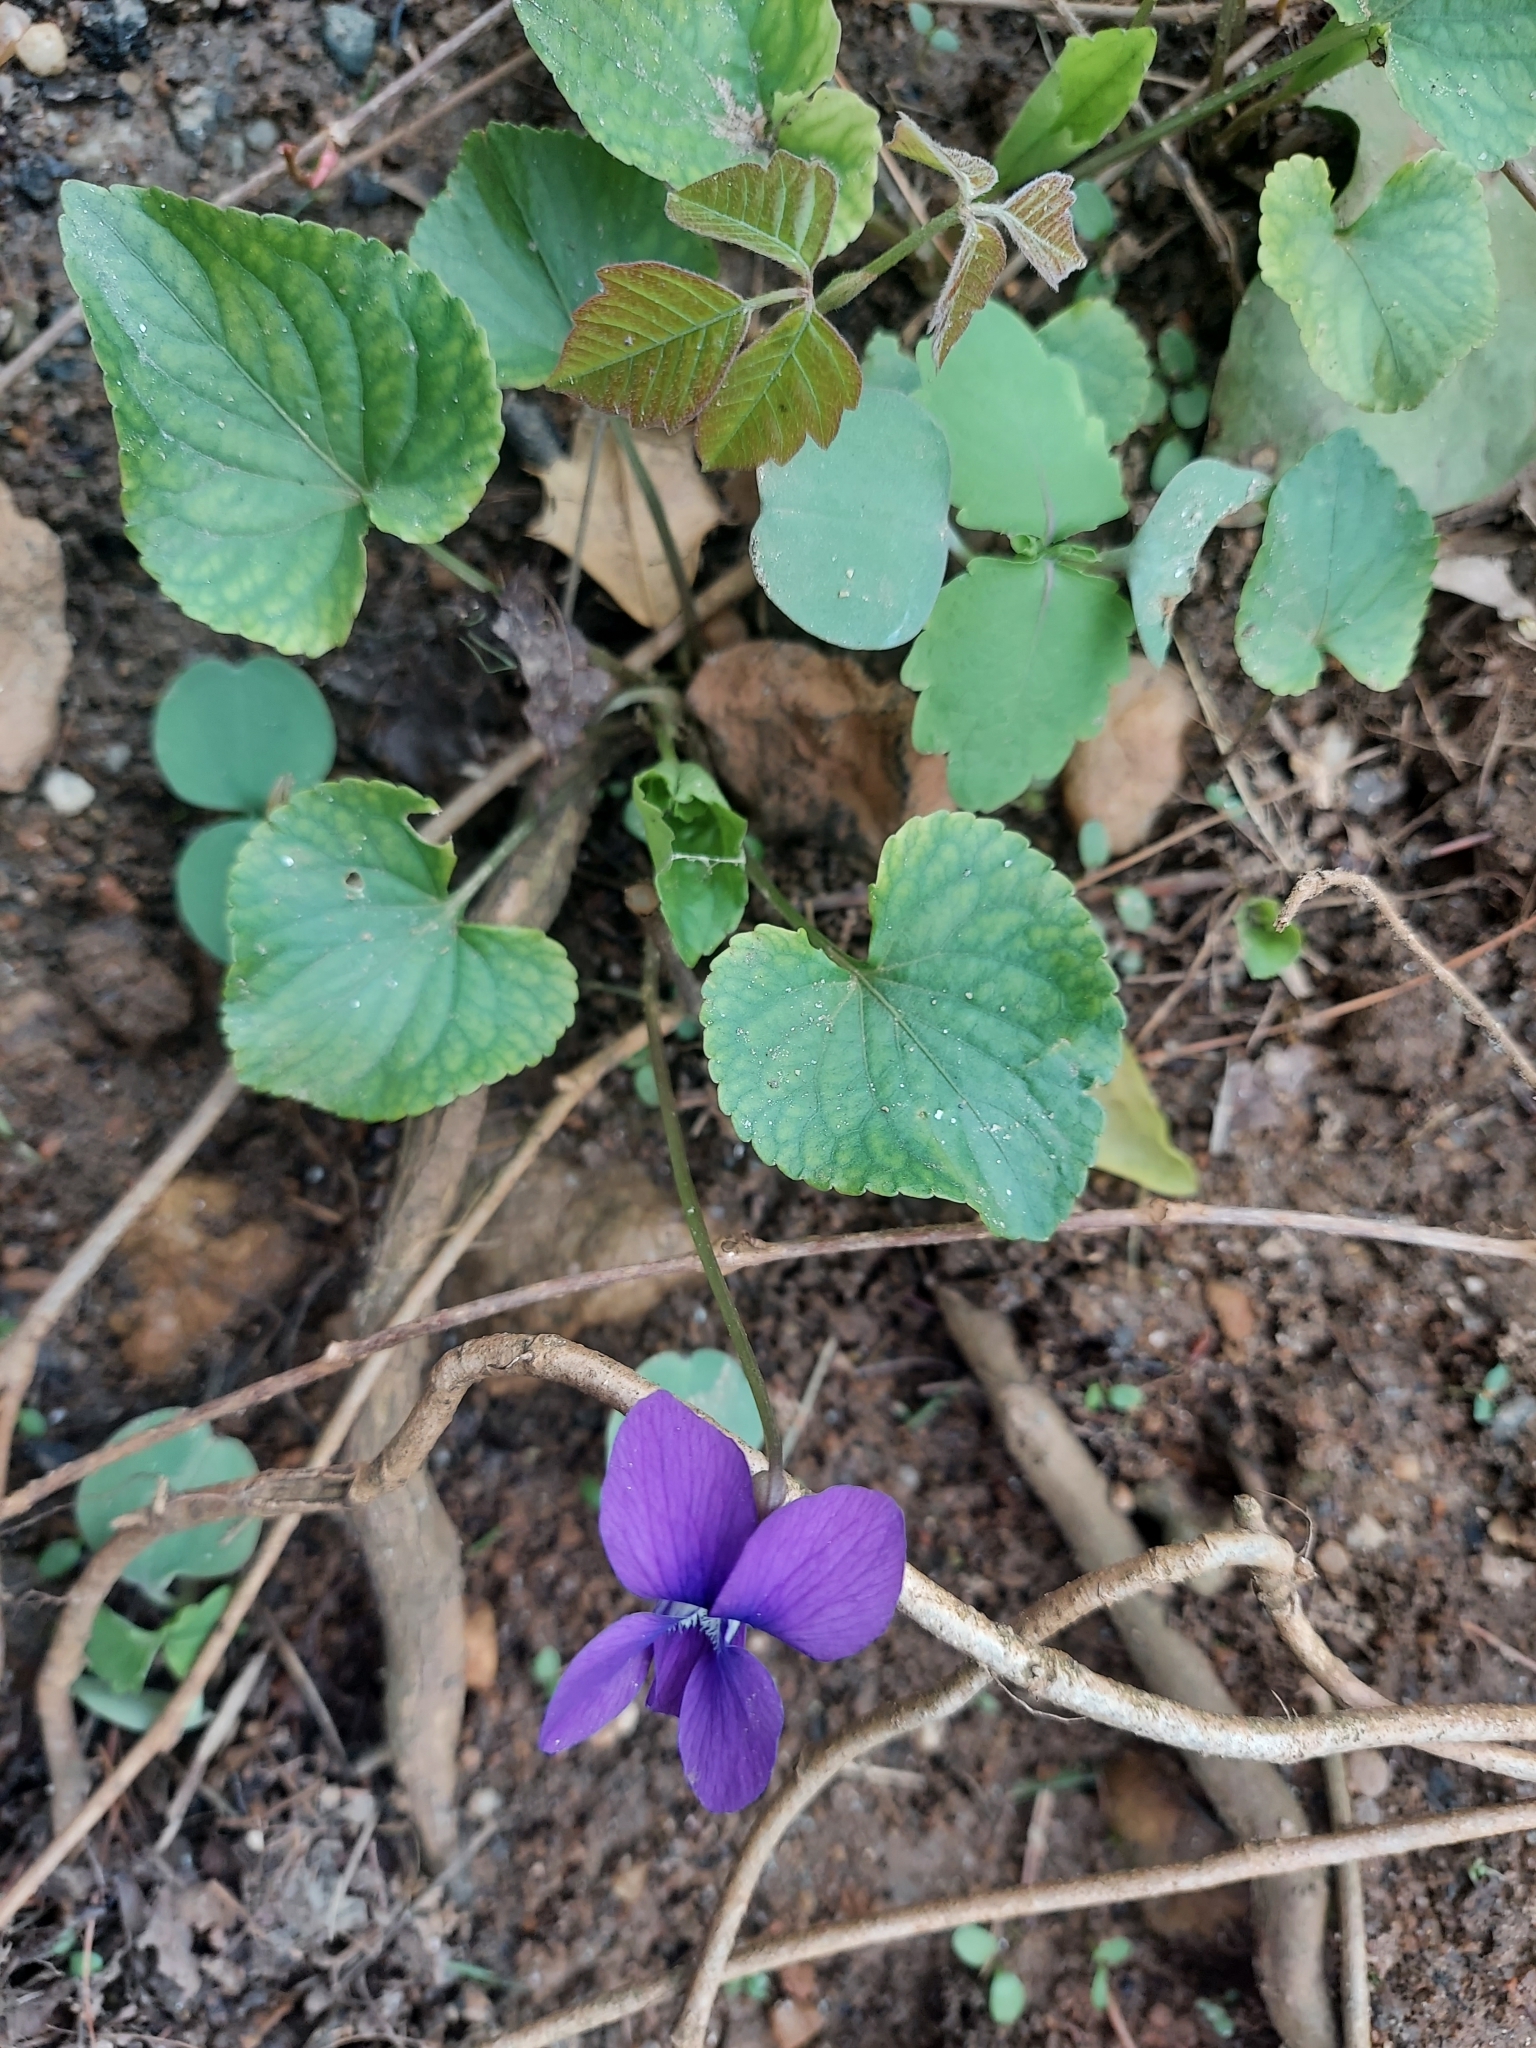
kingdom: Plantae
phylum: Tracheophyta
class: Magnoliopsida
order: Malpighiales
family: Violaceae
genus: Viola
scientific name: Viola sororia
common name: Dooryard violet
